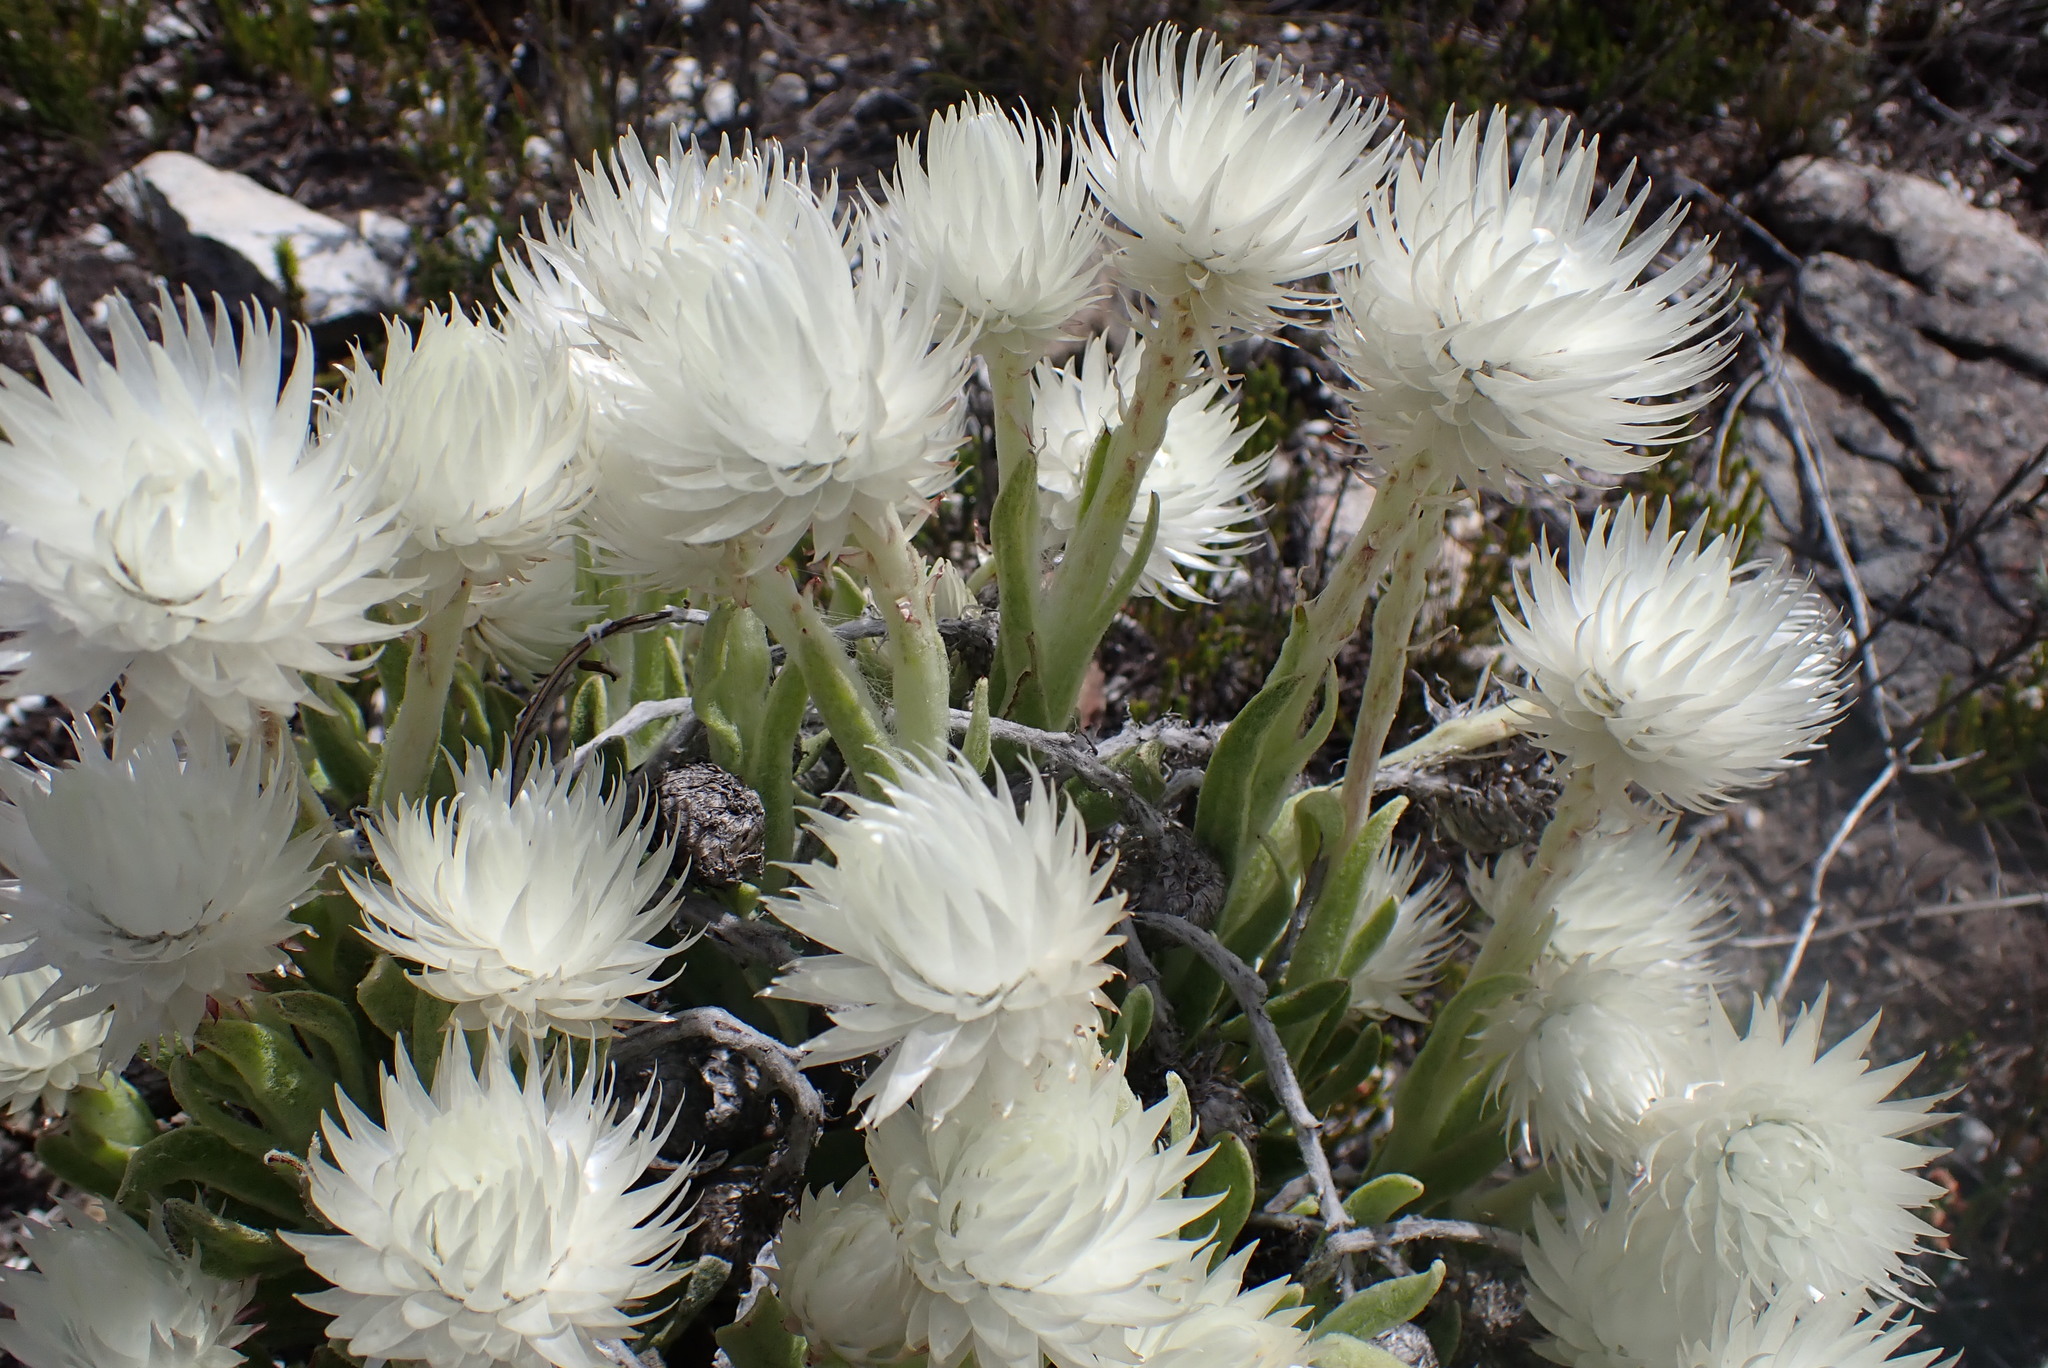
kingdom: Plantae
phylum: Tracheophyta
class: Magnoliopsida
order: Asterales
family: Asteraceae
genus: Syncarpha
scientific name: Syncarpha vestita
